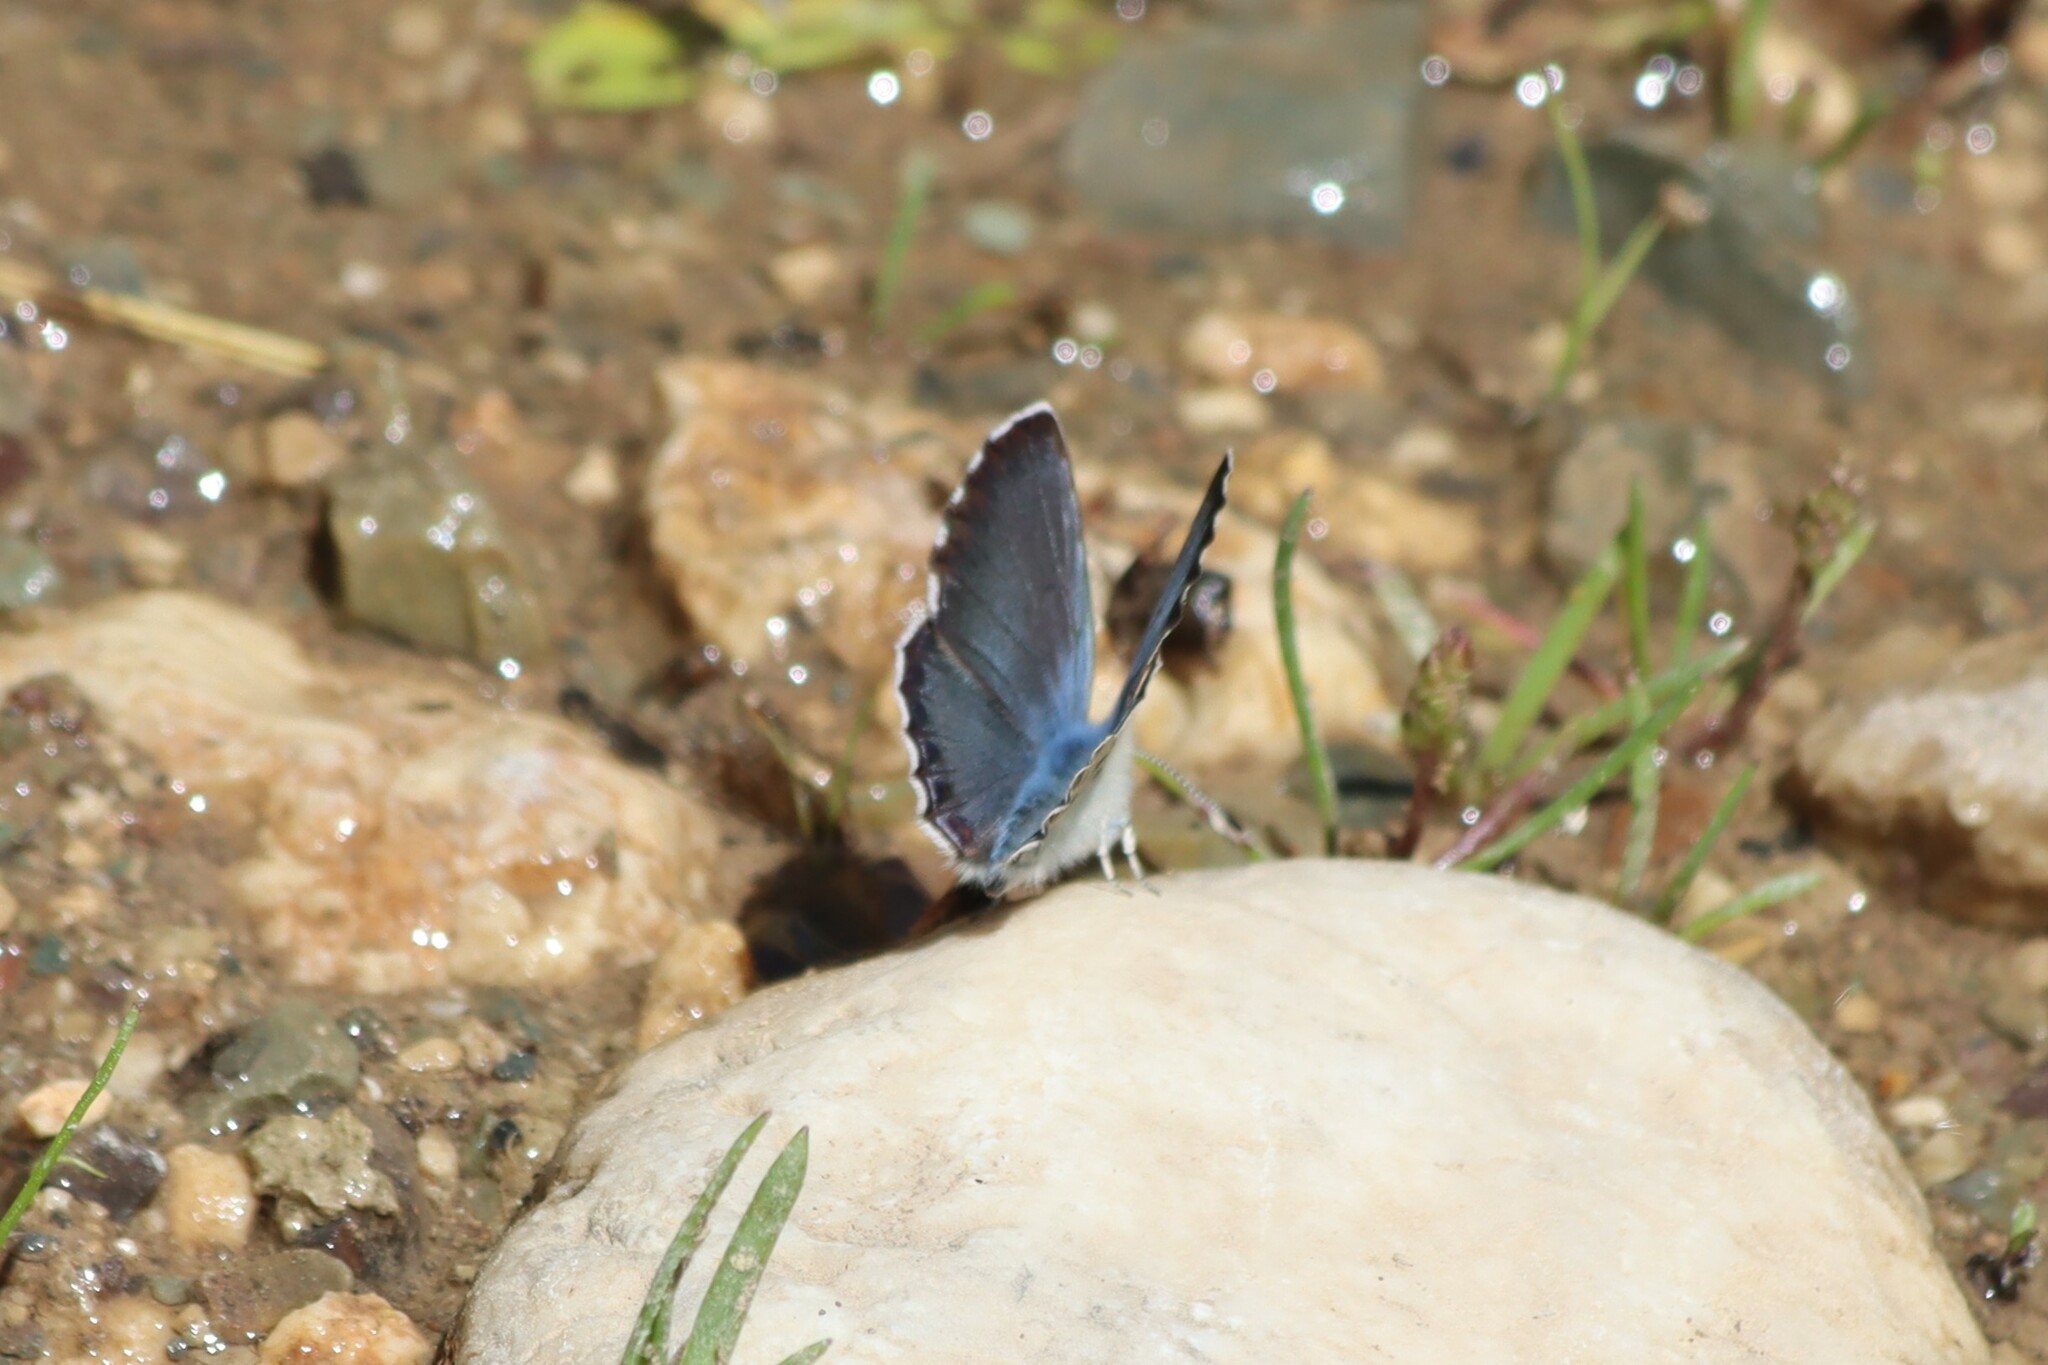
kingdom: Animalia
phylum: Arthropoda
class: Insecta
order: Lepidoptera
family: Lycaenidae
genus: Pseudophilotes
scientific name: Pseudophilotes bavius
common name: Bavius blue
